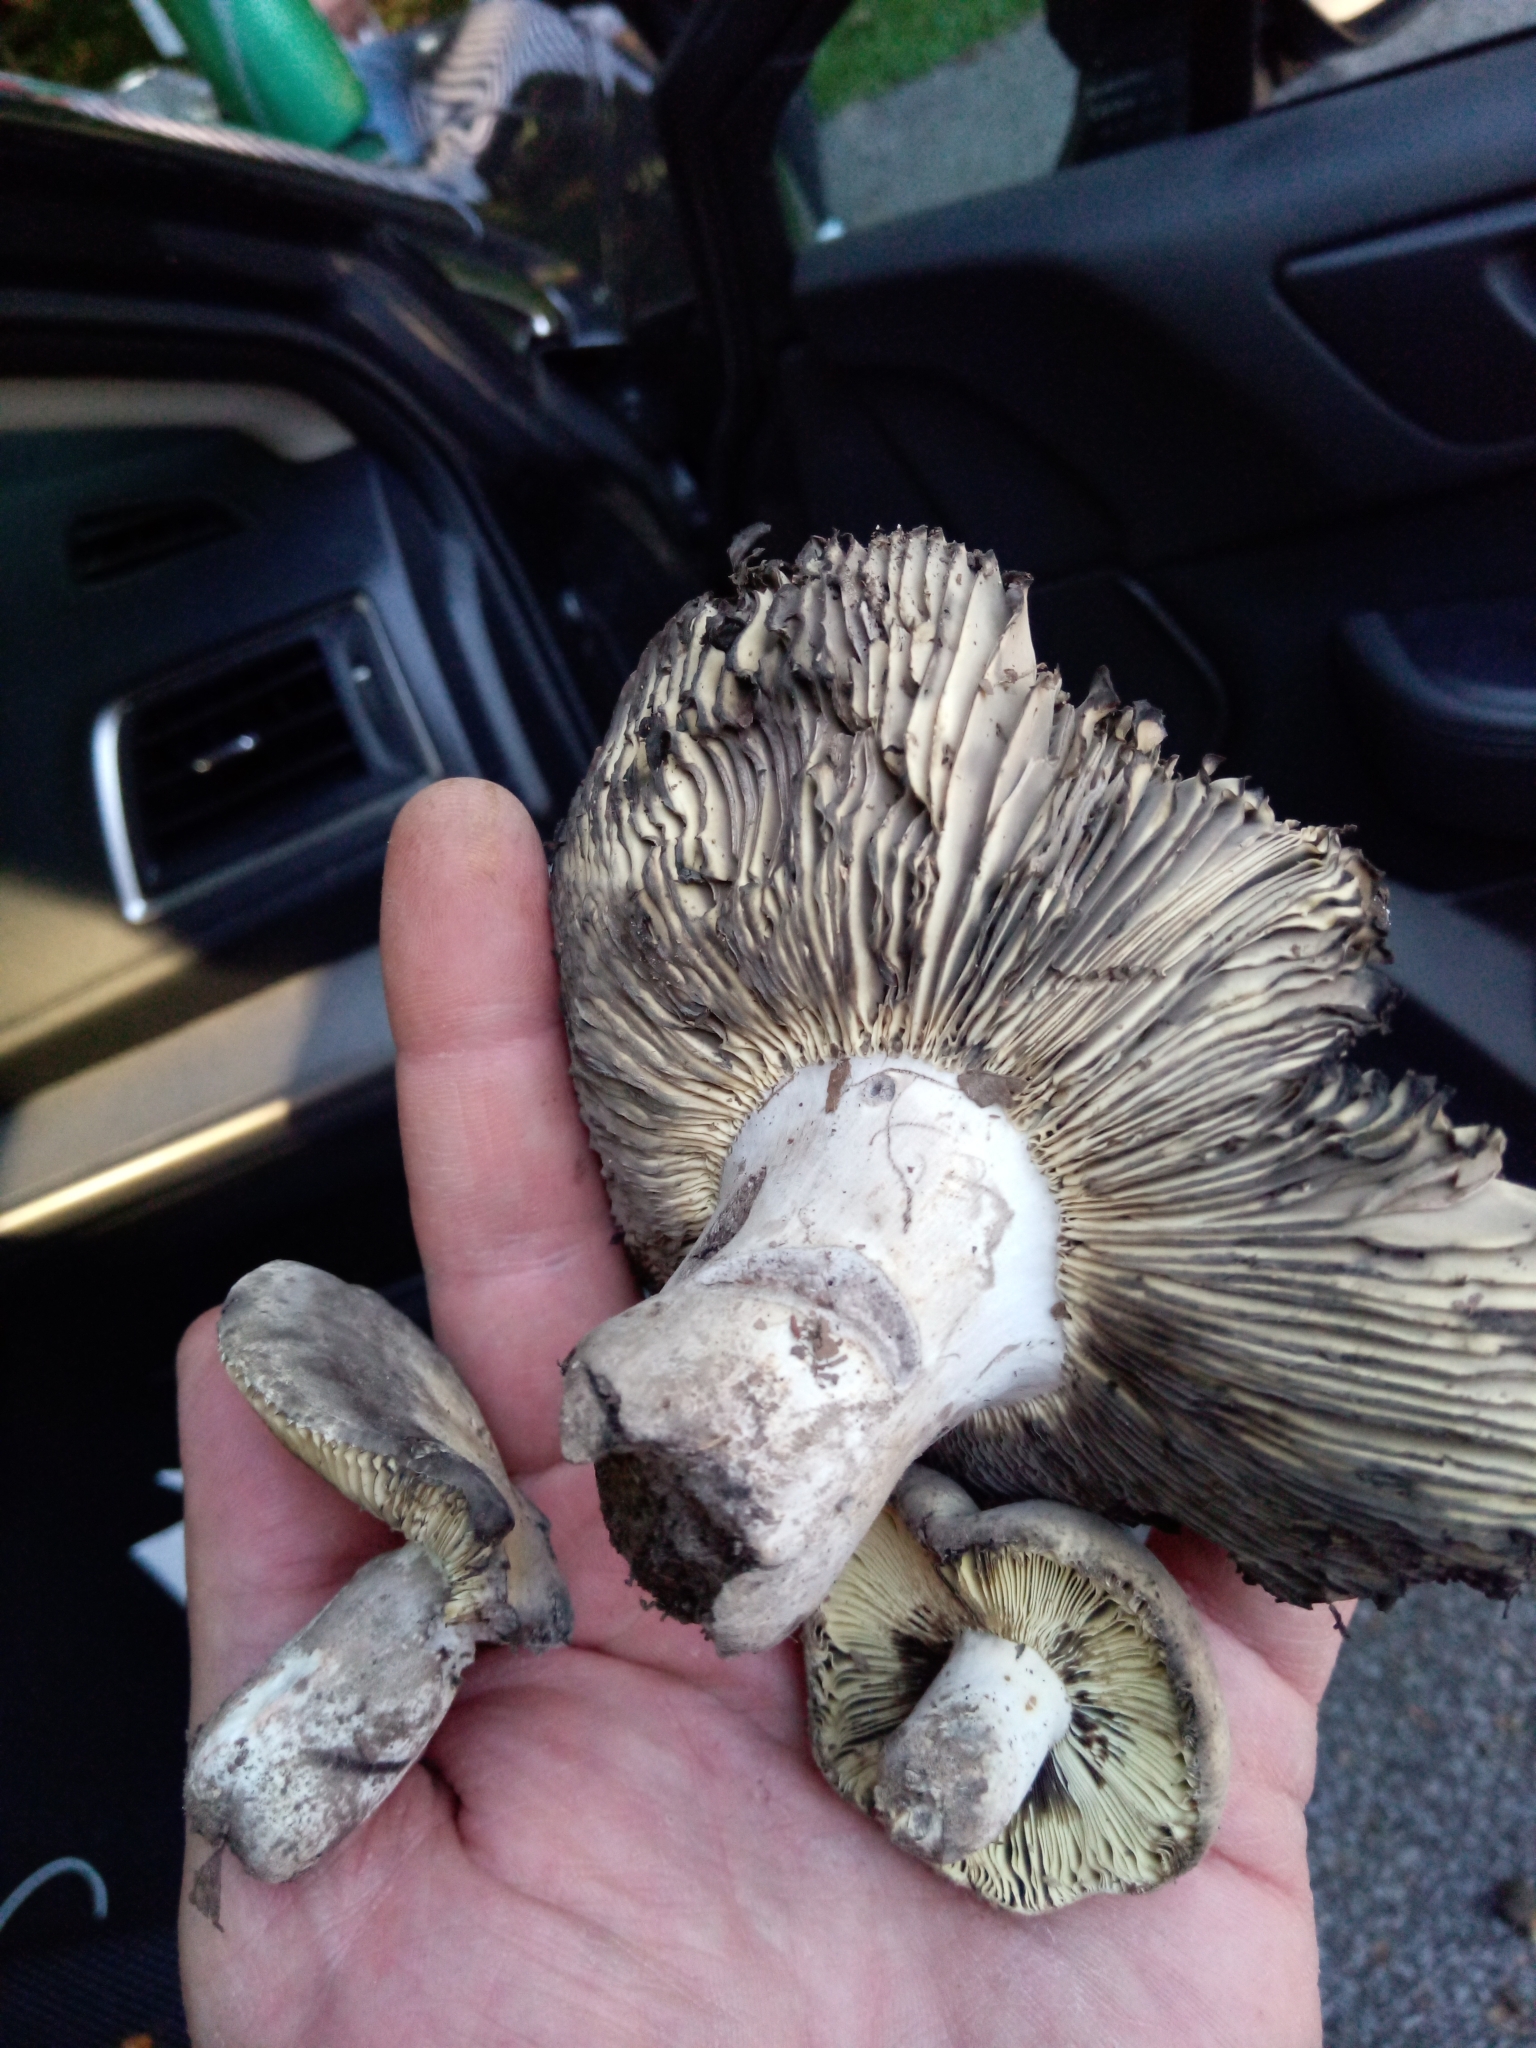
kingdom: Fungi
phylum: Basidiomycota
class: Agaricomycetes
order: Russulales
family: Russulaceae
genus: Russula
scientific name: Russula dissimulans
